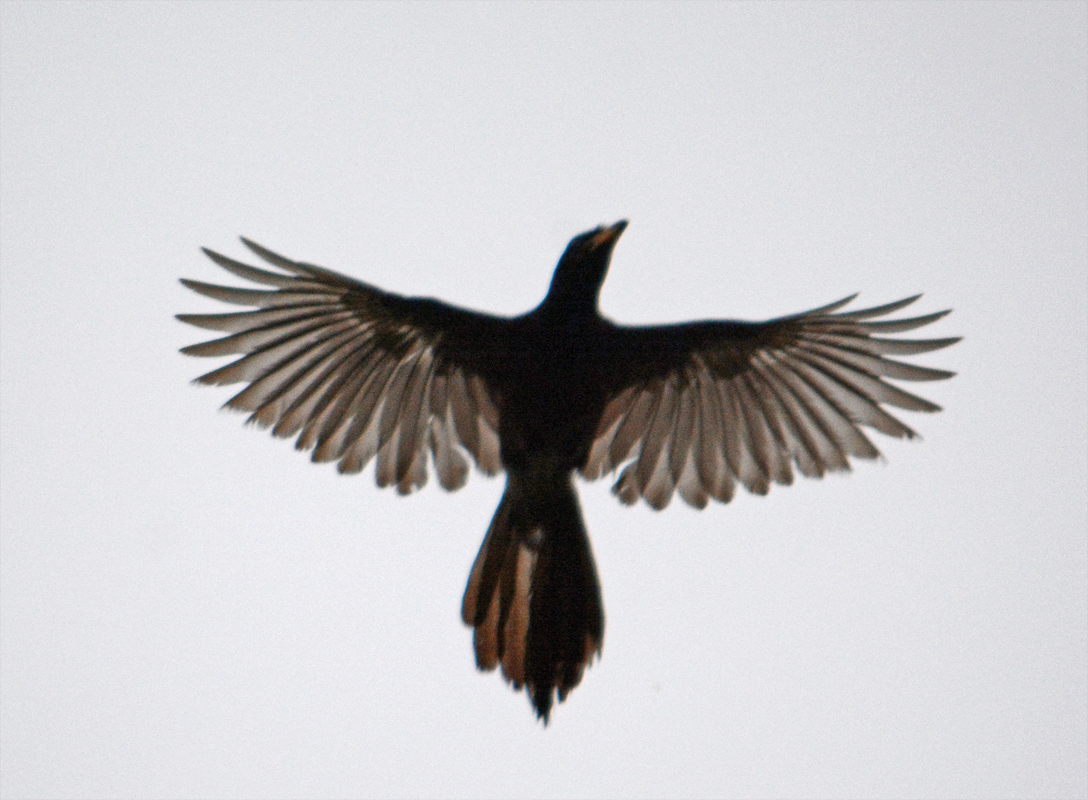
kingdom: Animalia
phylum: Chordata
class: Aves
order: Passeriformes
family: Corvidae
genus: Psilorhinus
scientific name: Psilorhinus morio
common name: Brown jay
